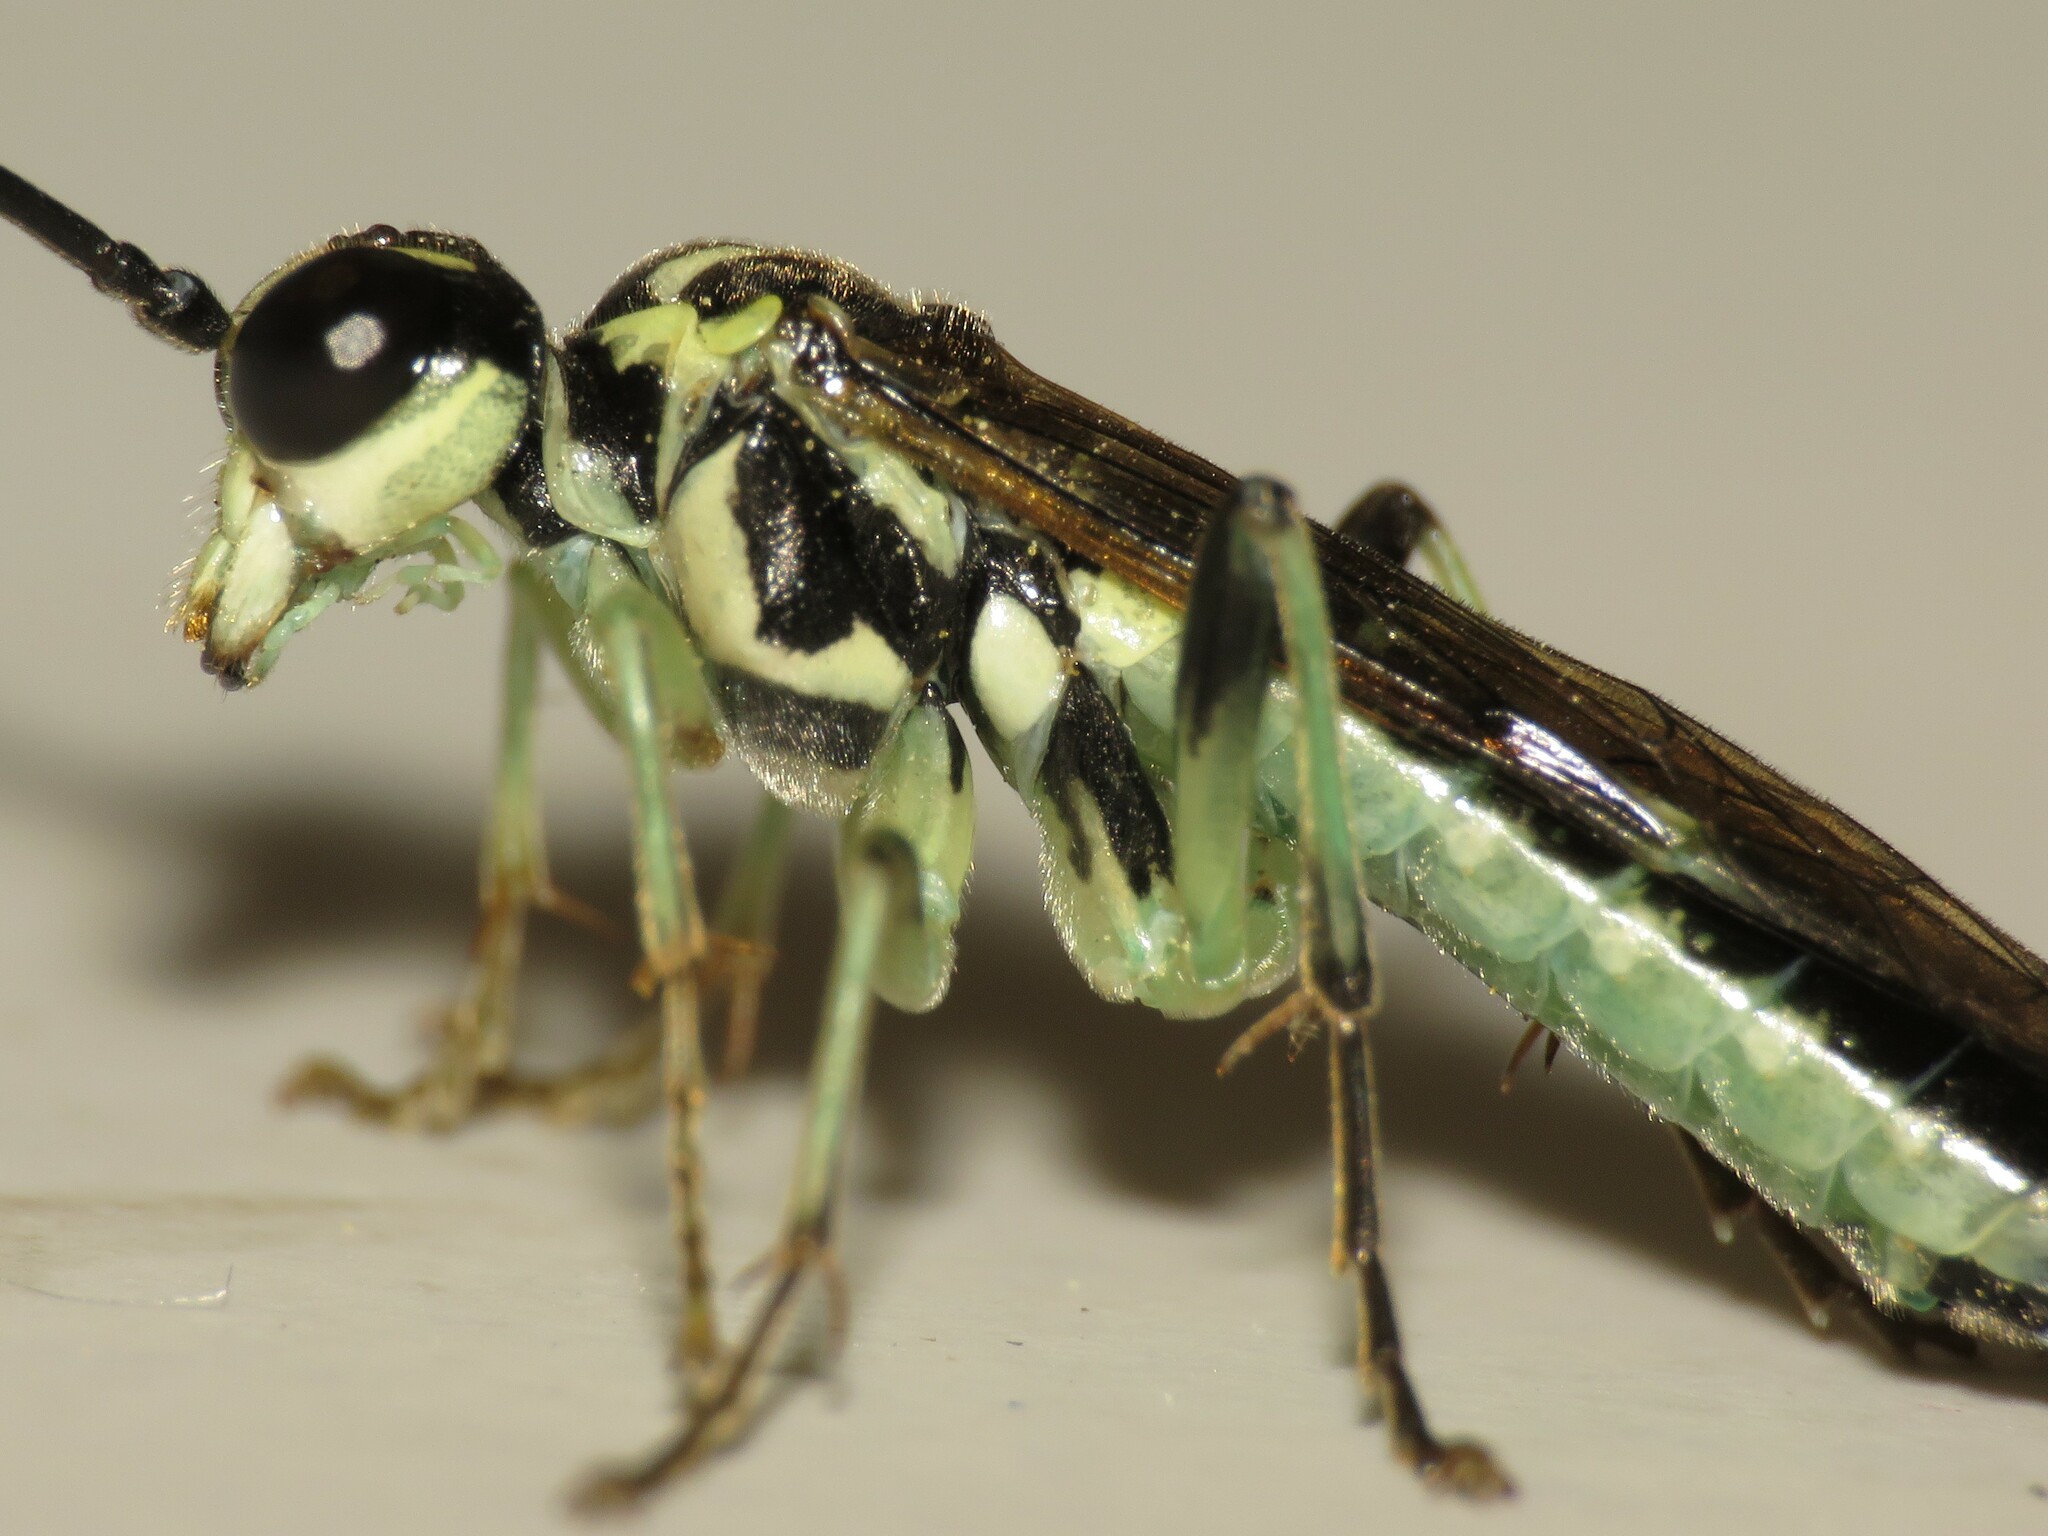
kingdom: Animalia
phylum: Arthropoda
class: Insecta
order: Hymenoptera
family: Tenthredinidae
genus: Tenthredo
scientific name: Tenthredo
